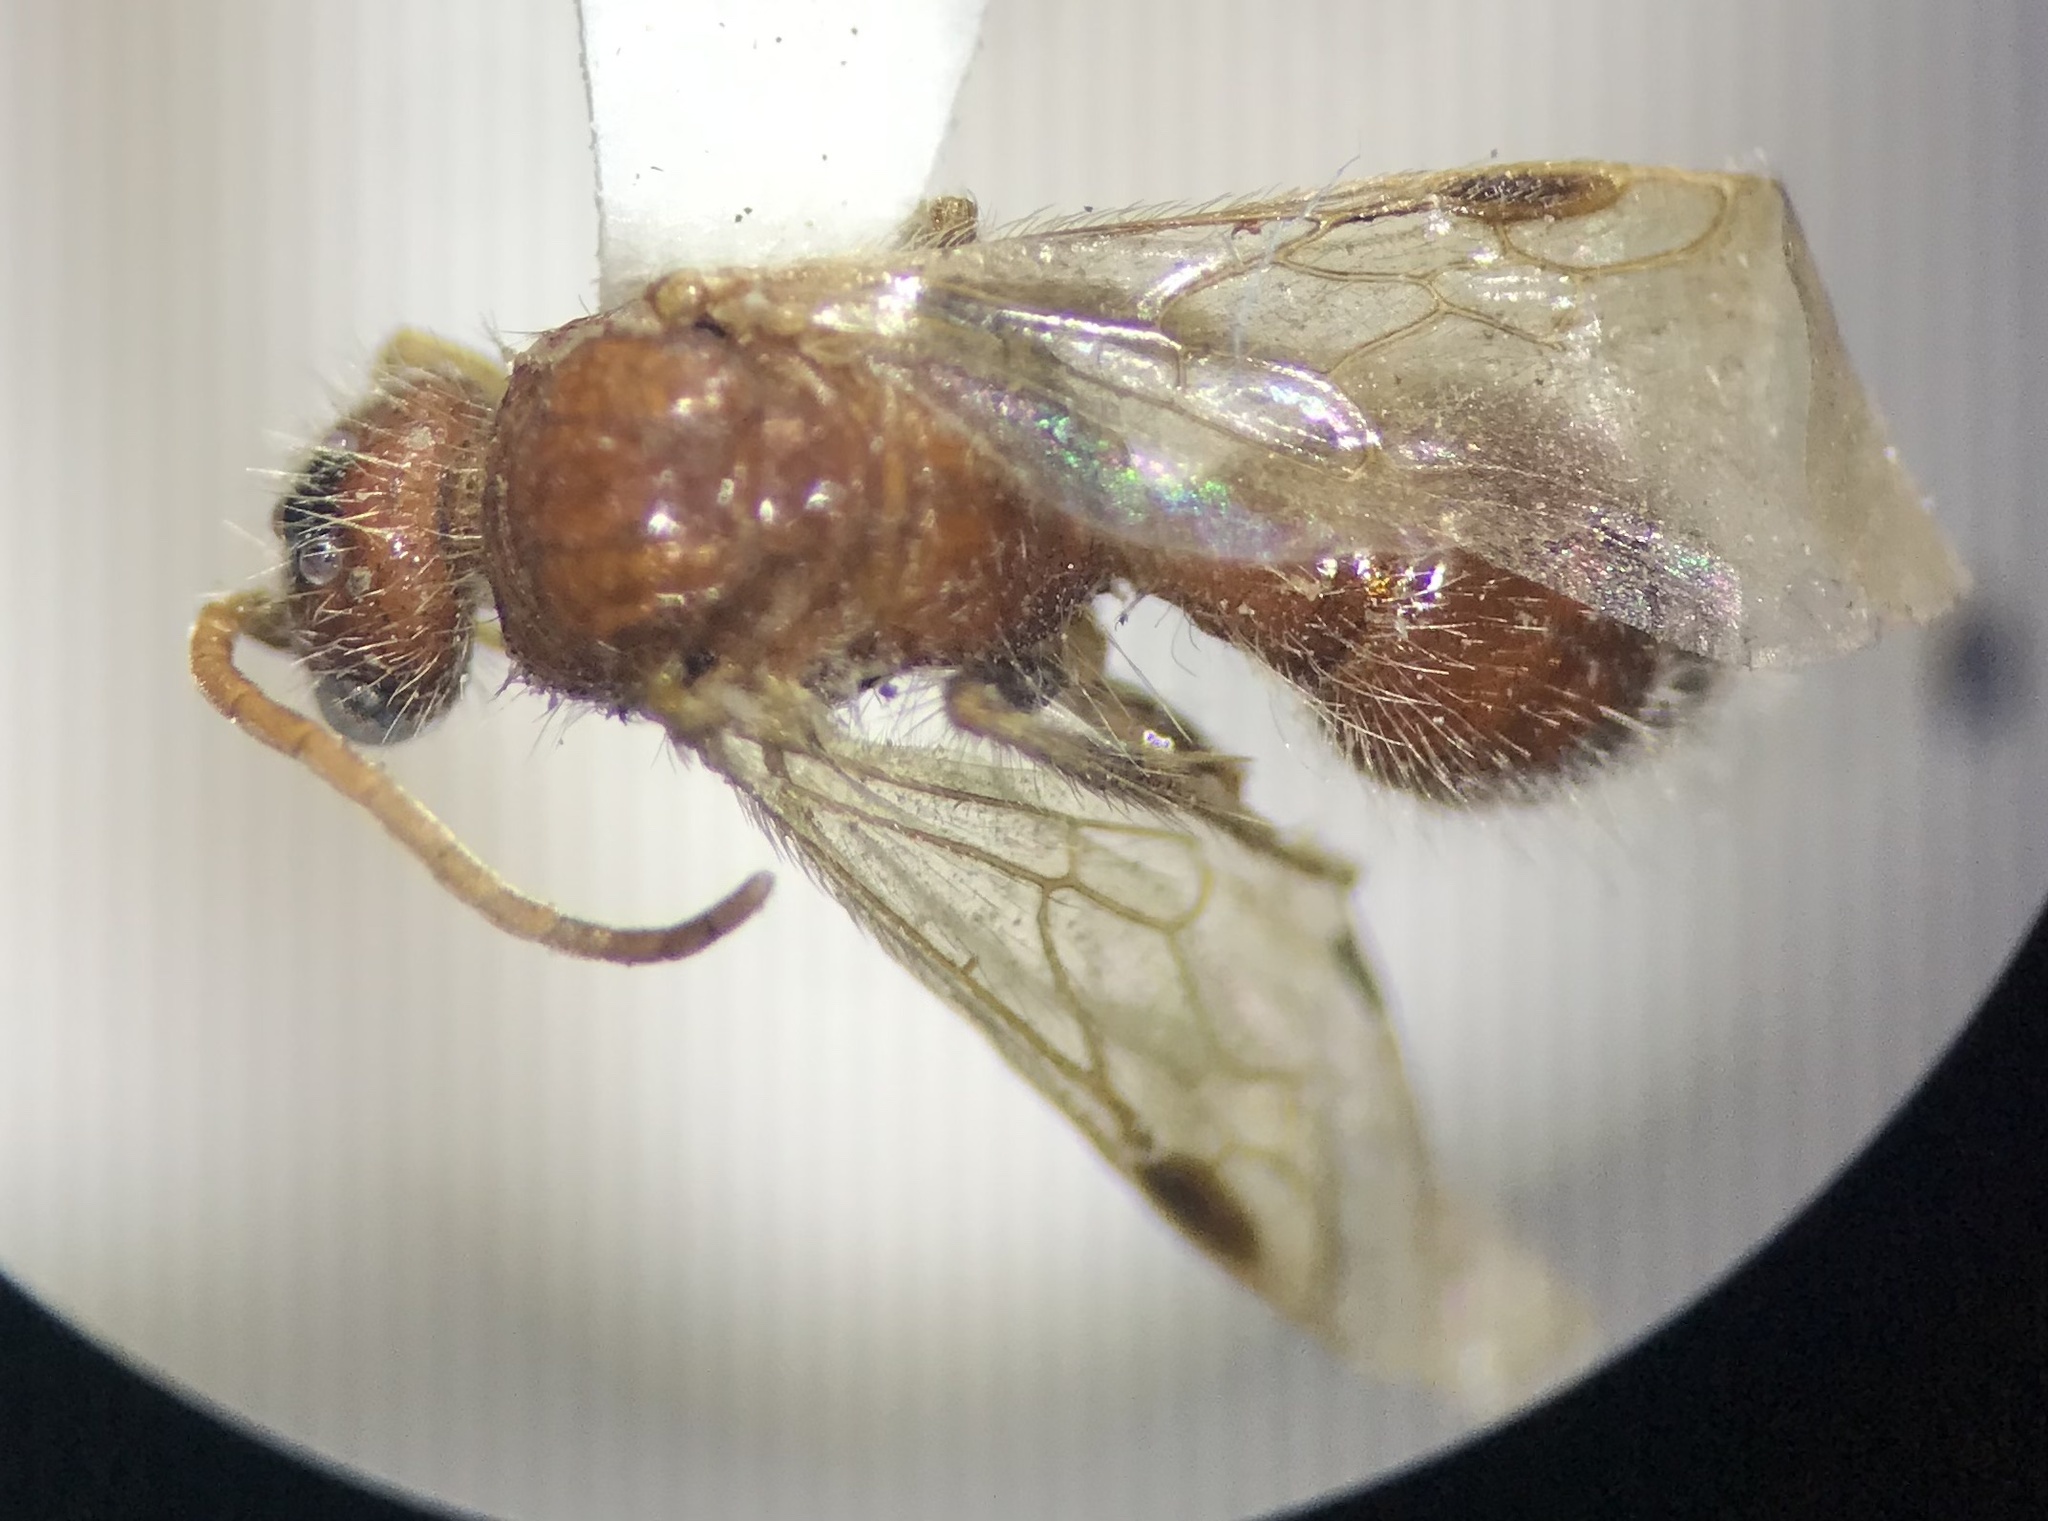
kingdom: Animalia
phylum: Arthropoda
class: Insecta
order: Hymenoptera
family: Mutillidae
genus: Sphaeropthalma
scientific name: Sphaeropthalma
